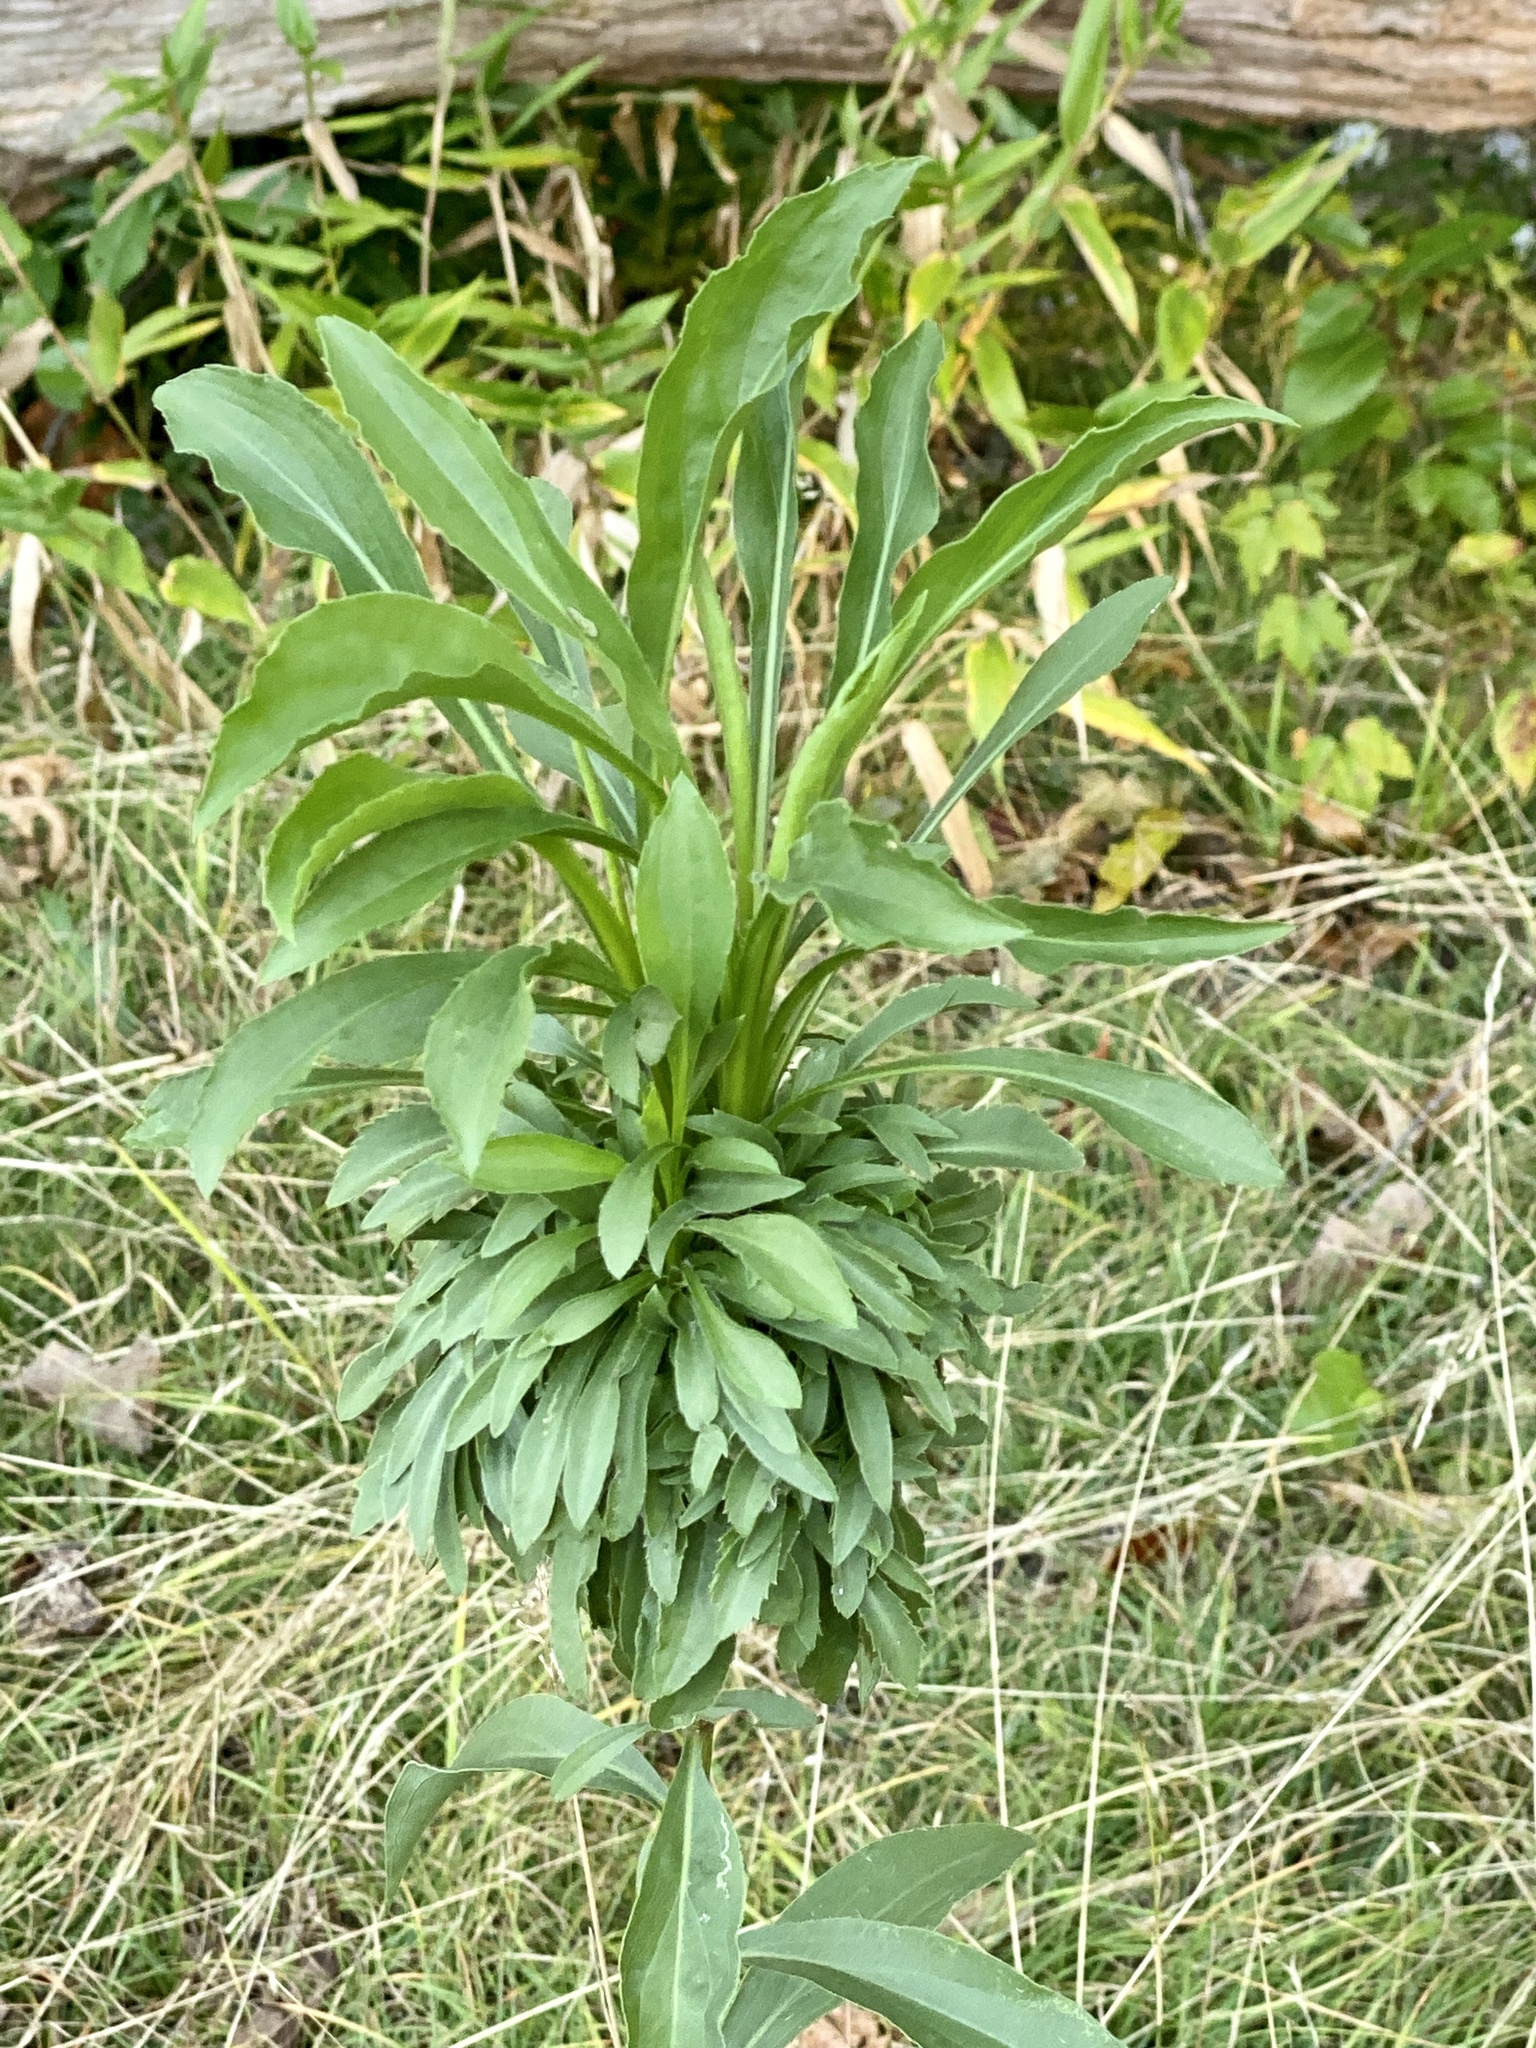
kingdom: Animalia
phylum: Arthropoda
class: Insecta
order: Diptera
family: Cecidomyiidae
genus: Asphondylia
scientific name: Asphondylia monacha
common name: Nun midge
